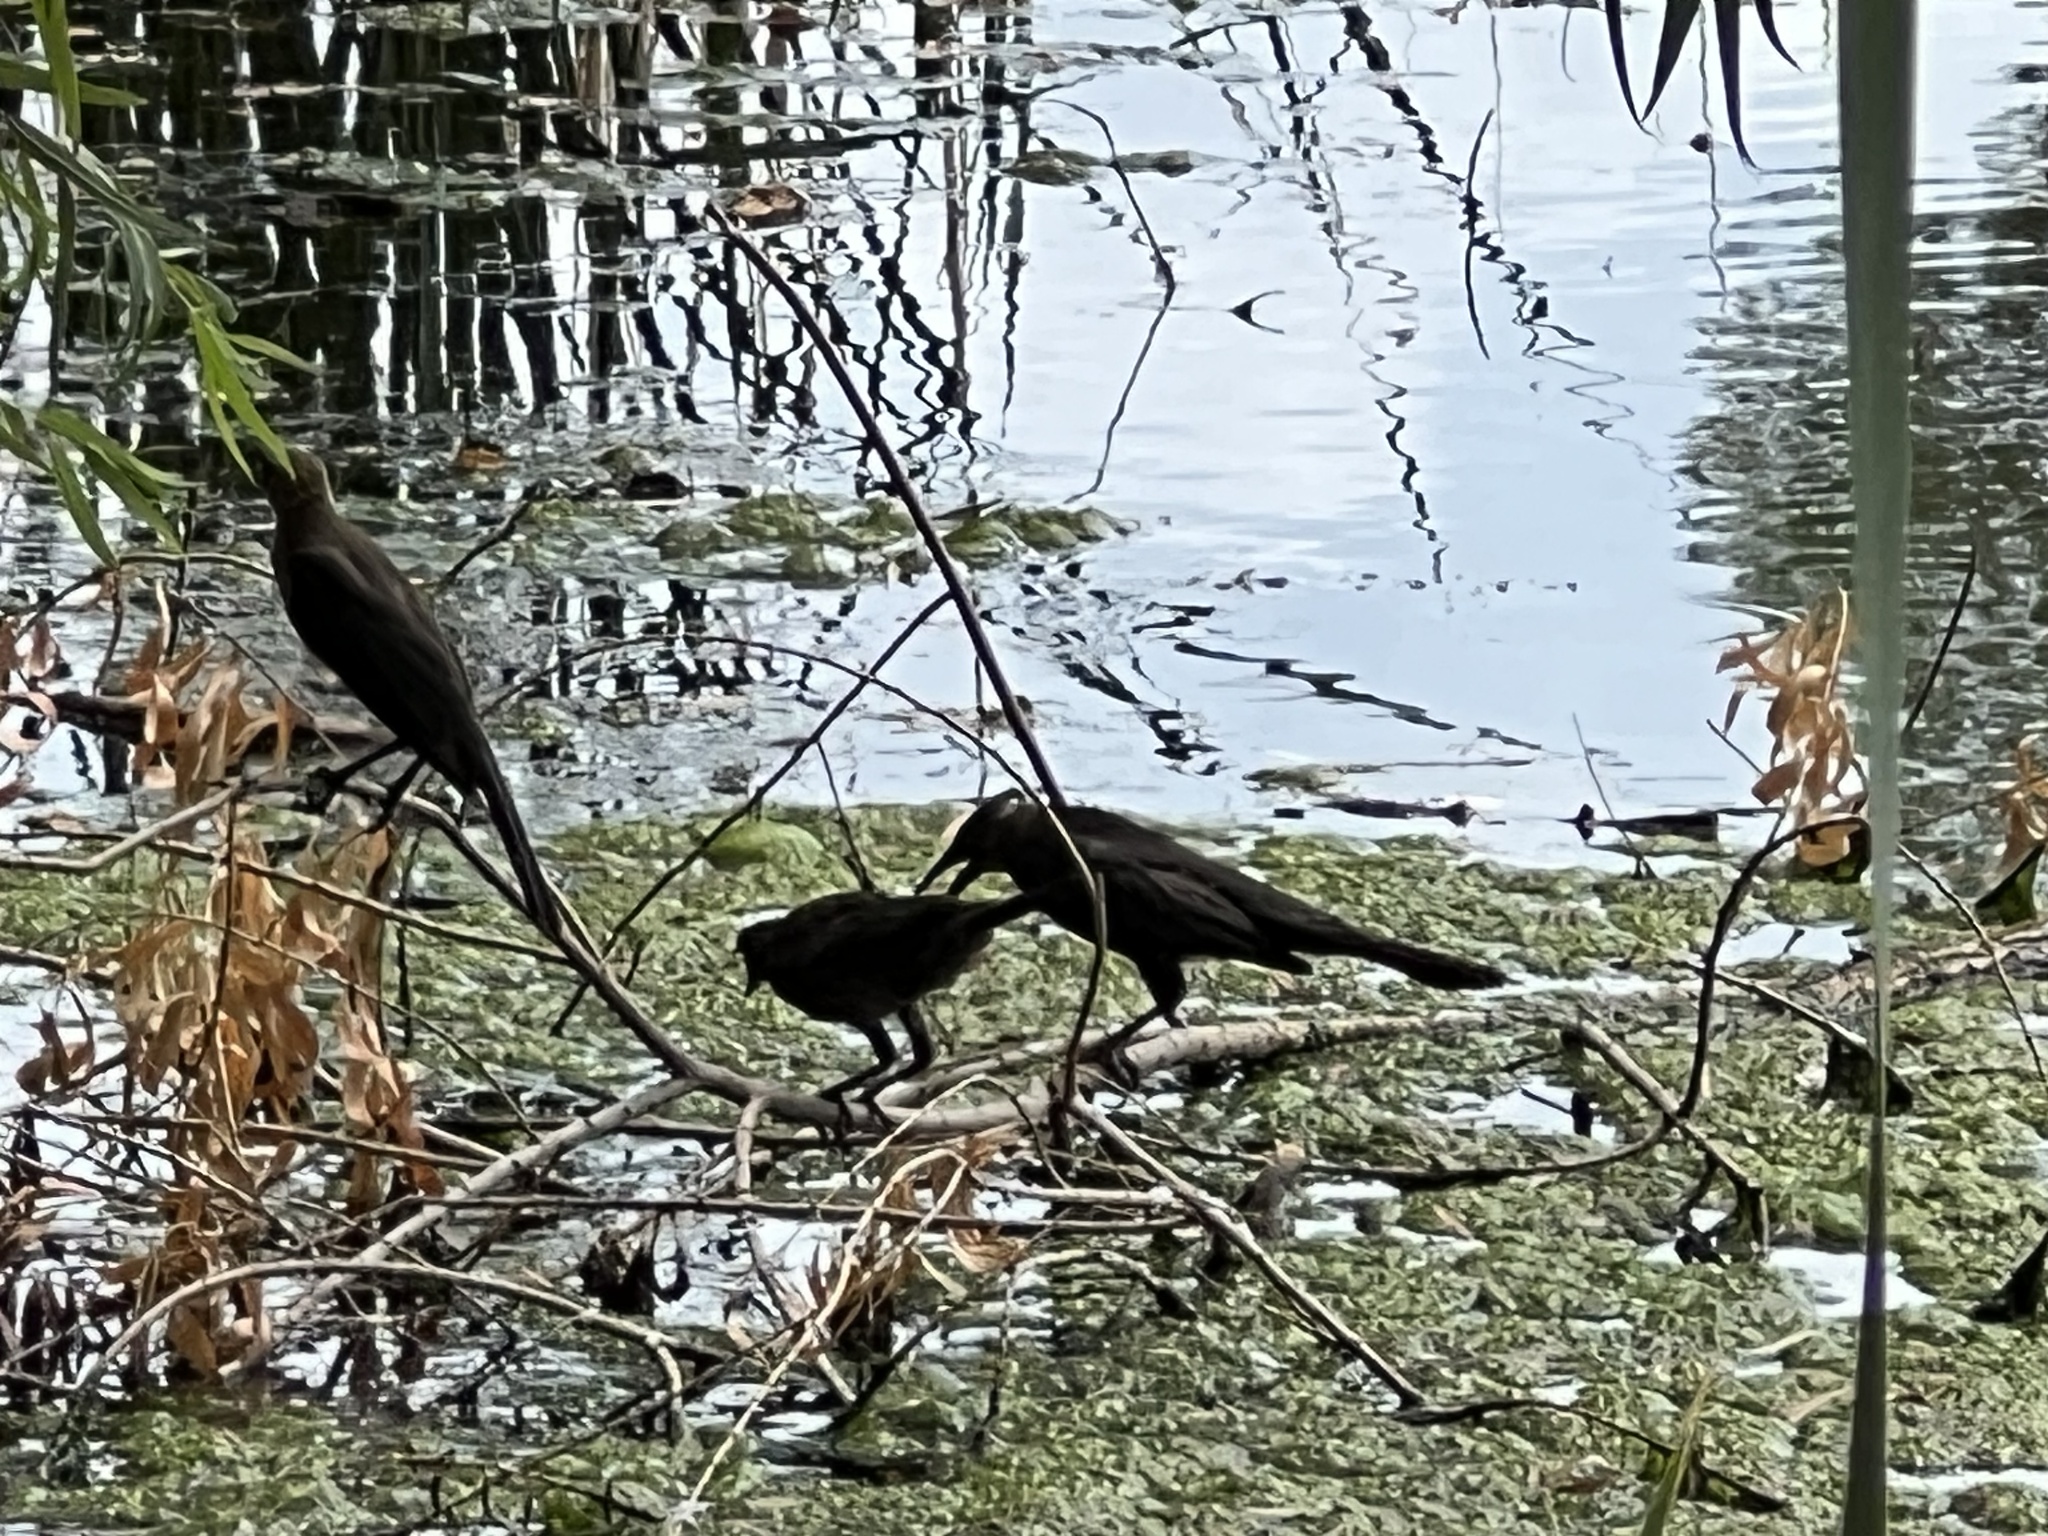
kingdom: Animalia
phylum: Chordata
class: Aves
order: Passeriformes
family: Icteridae
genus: Quiscalus
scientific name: Quiscalus mexicanus
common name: Great-tailed grackle
